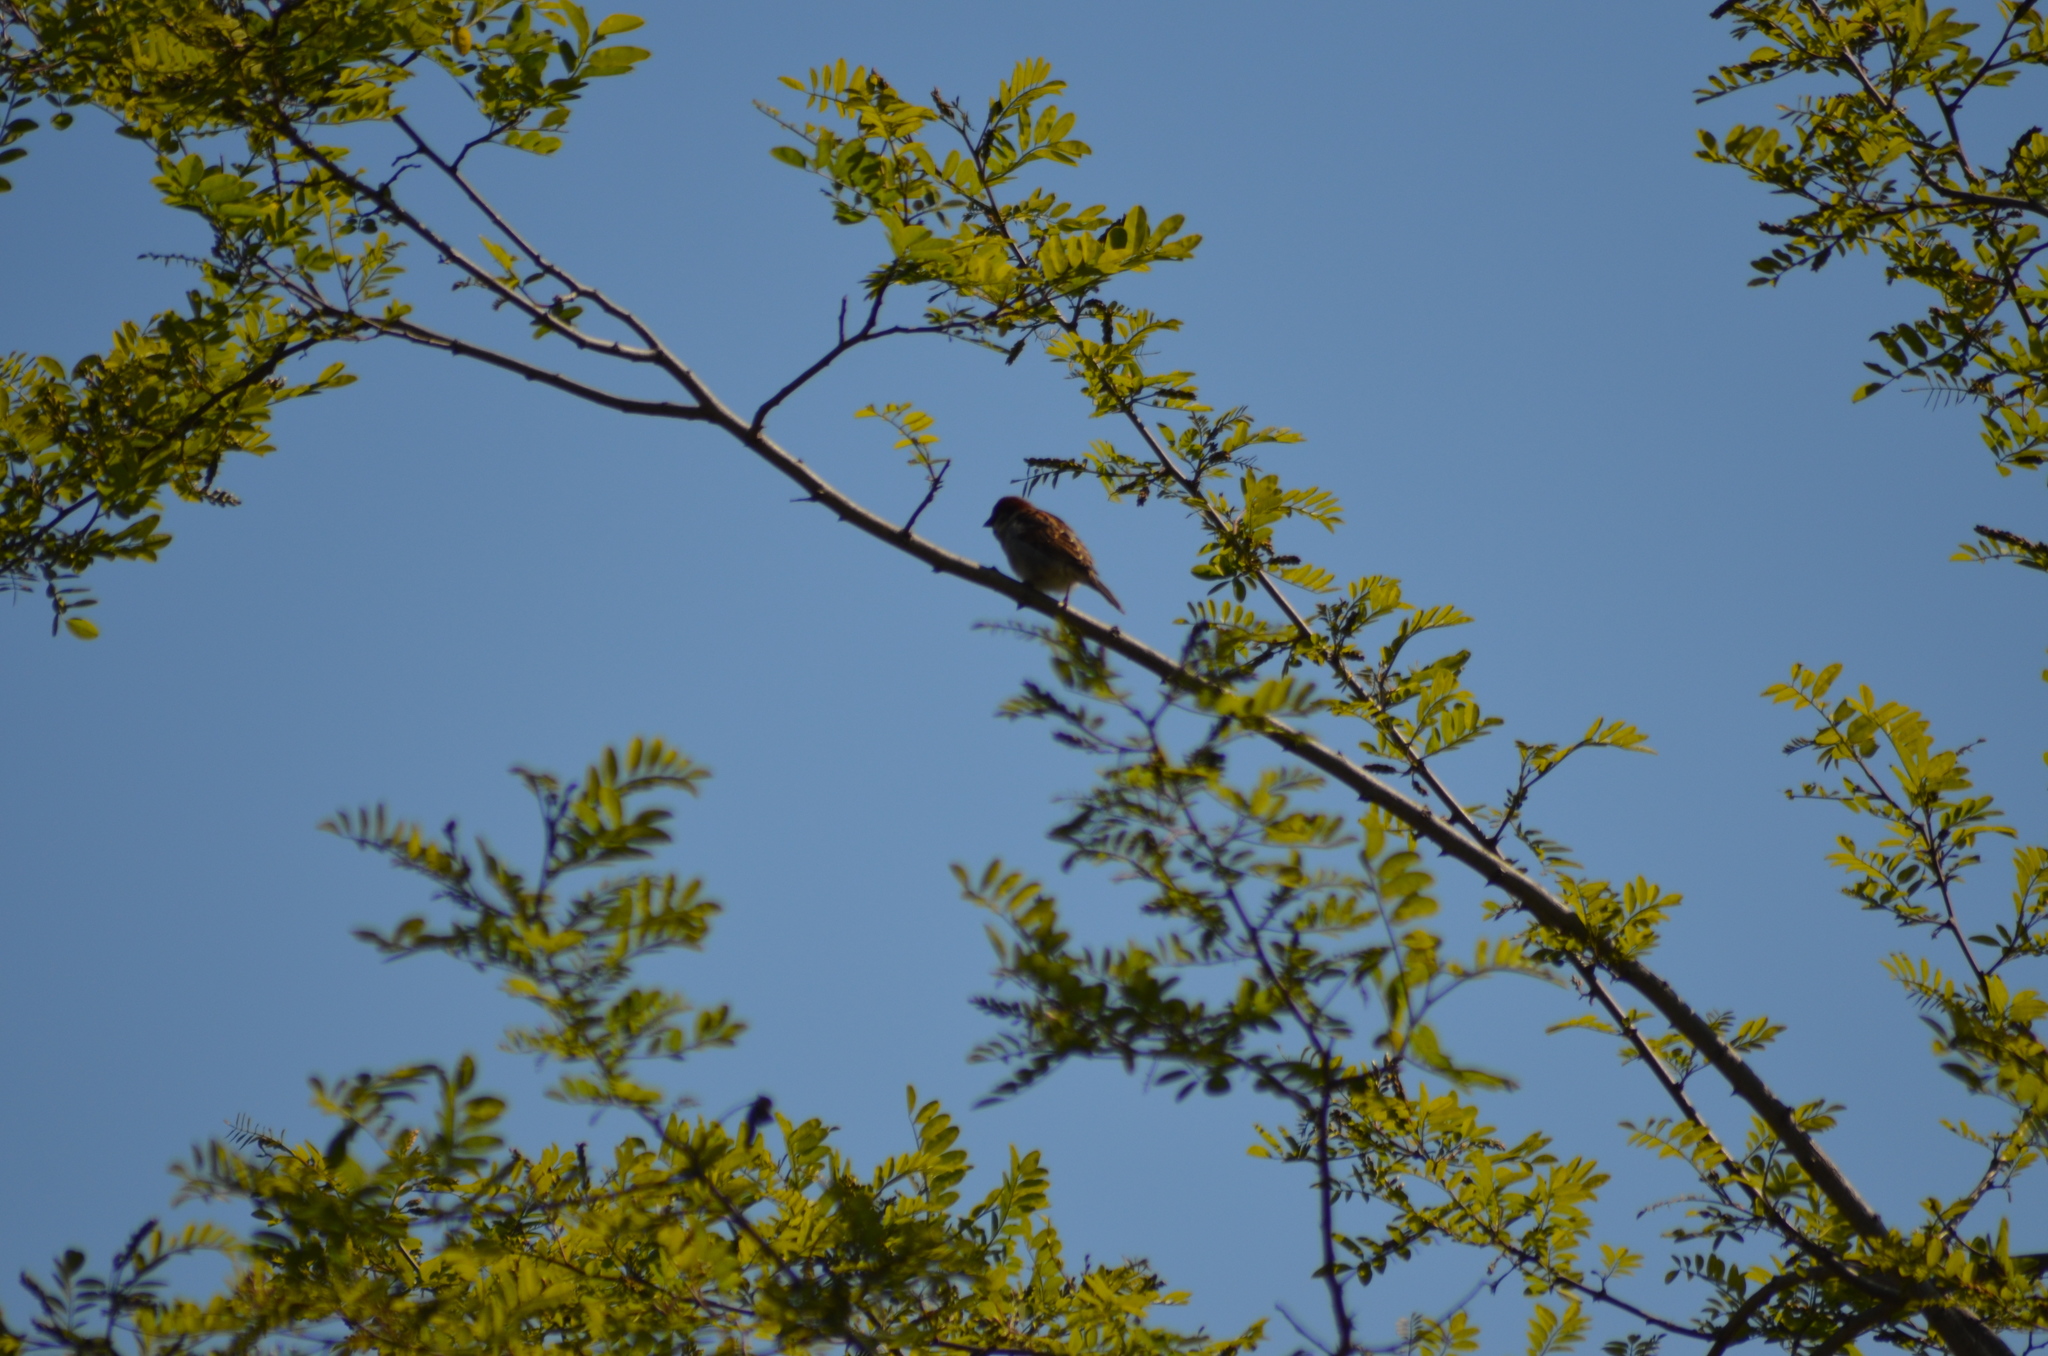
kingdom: Animalia
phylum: Chordata
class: Aves
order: Passeriformes
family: Passeridae
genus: Passer
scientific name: Passer domesticus
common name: House sparrow
